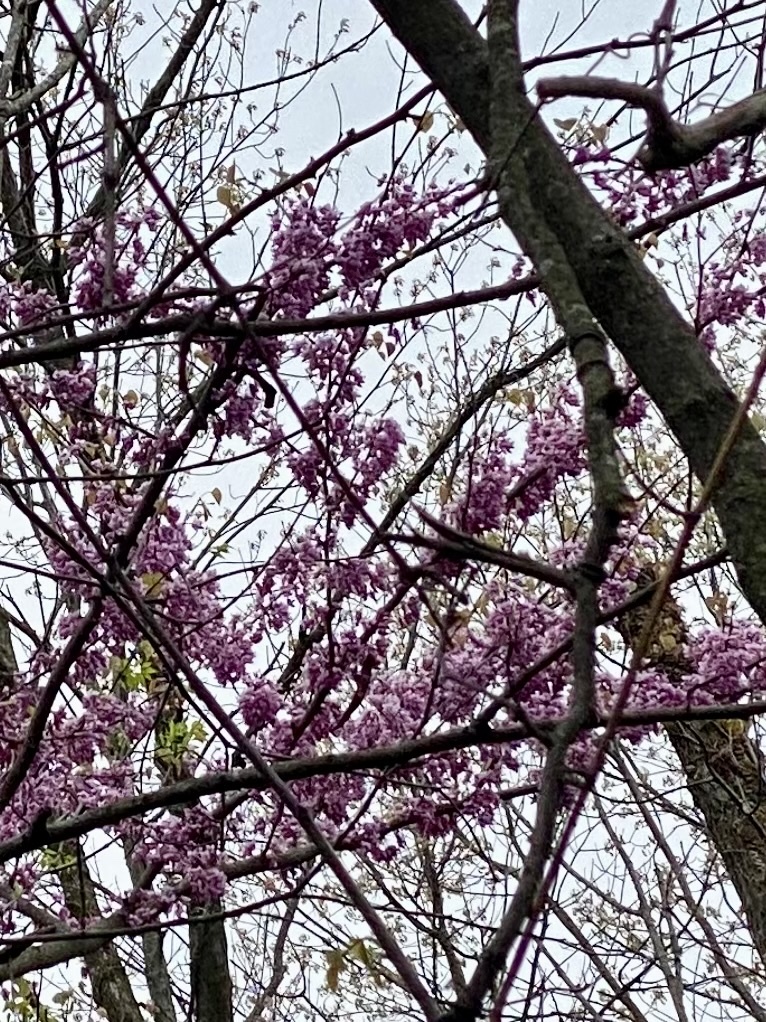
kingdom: Plantae
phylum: Tracheophyta
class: Magnoliopsida
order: Fabales
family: Fabaceae
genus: Cercis
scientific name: Cercis canadensis
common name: Eastern redbud
